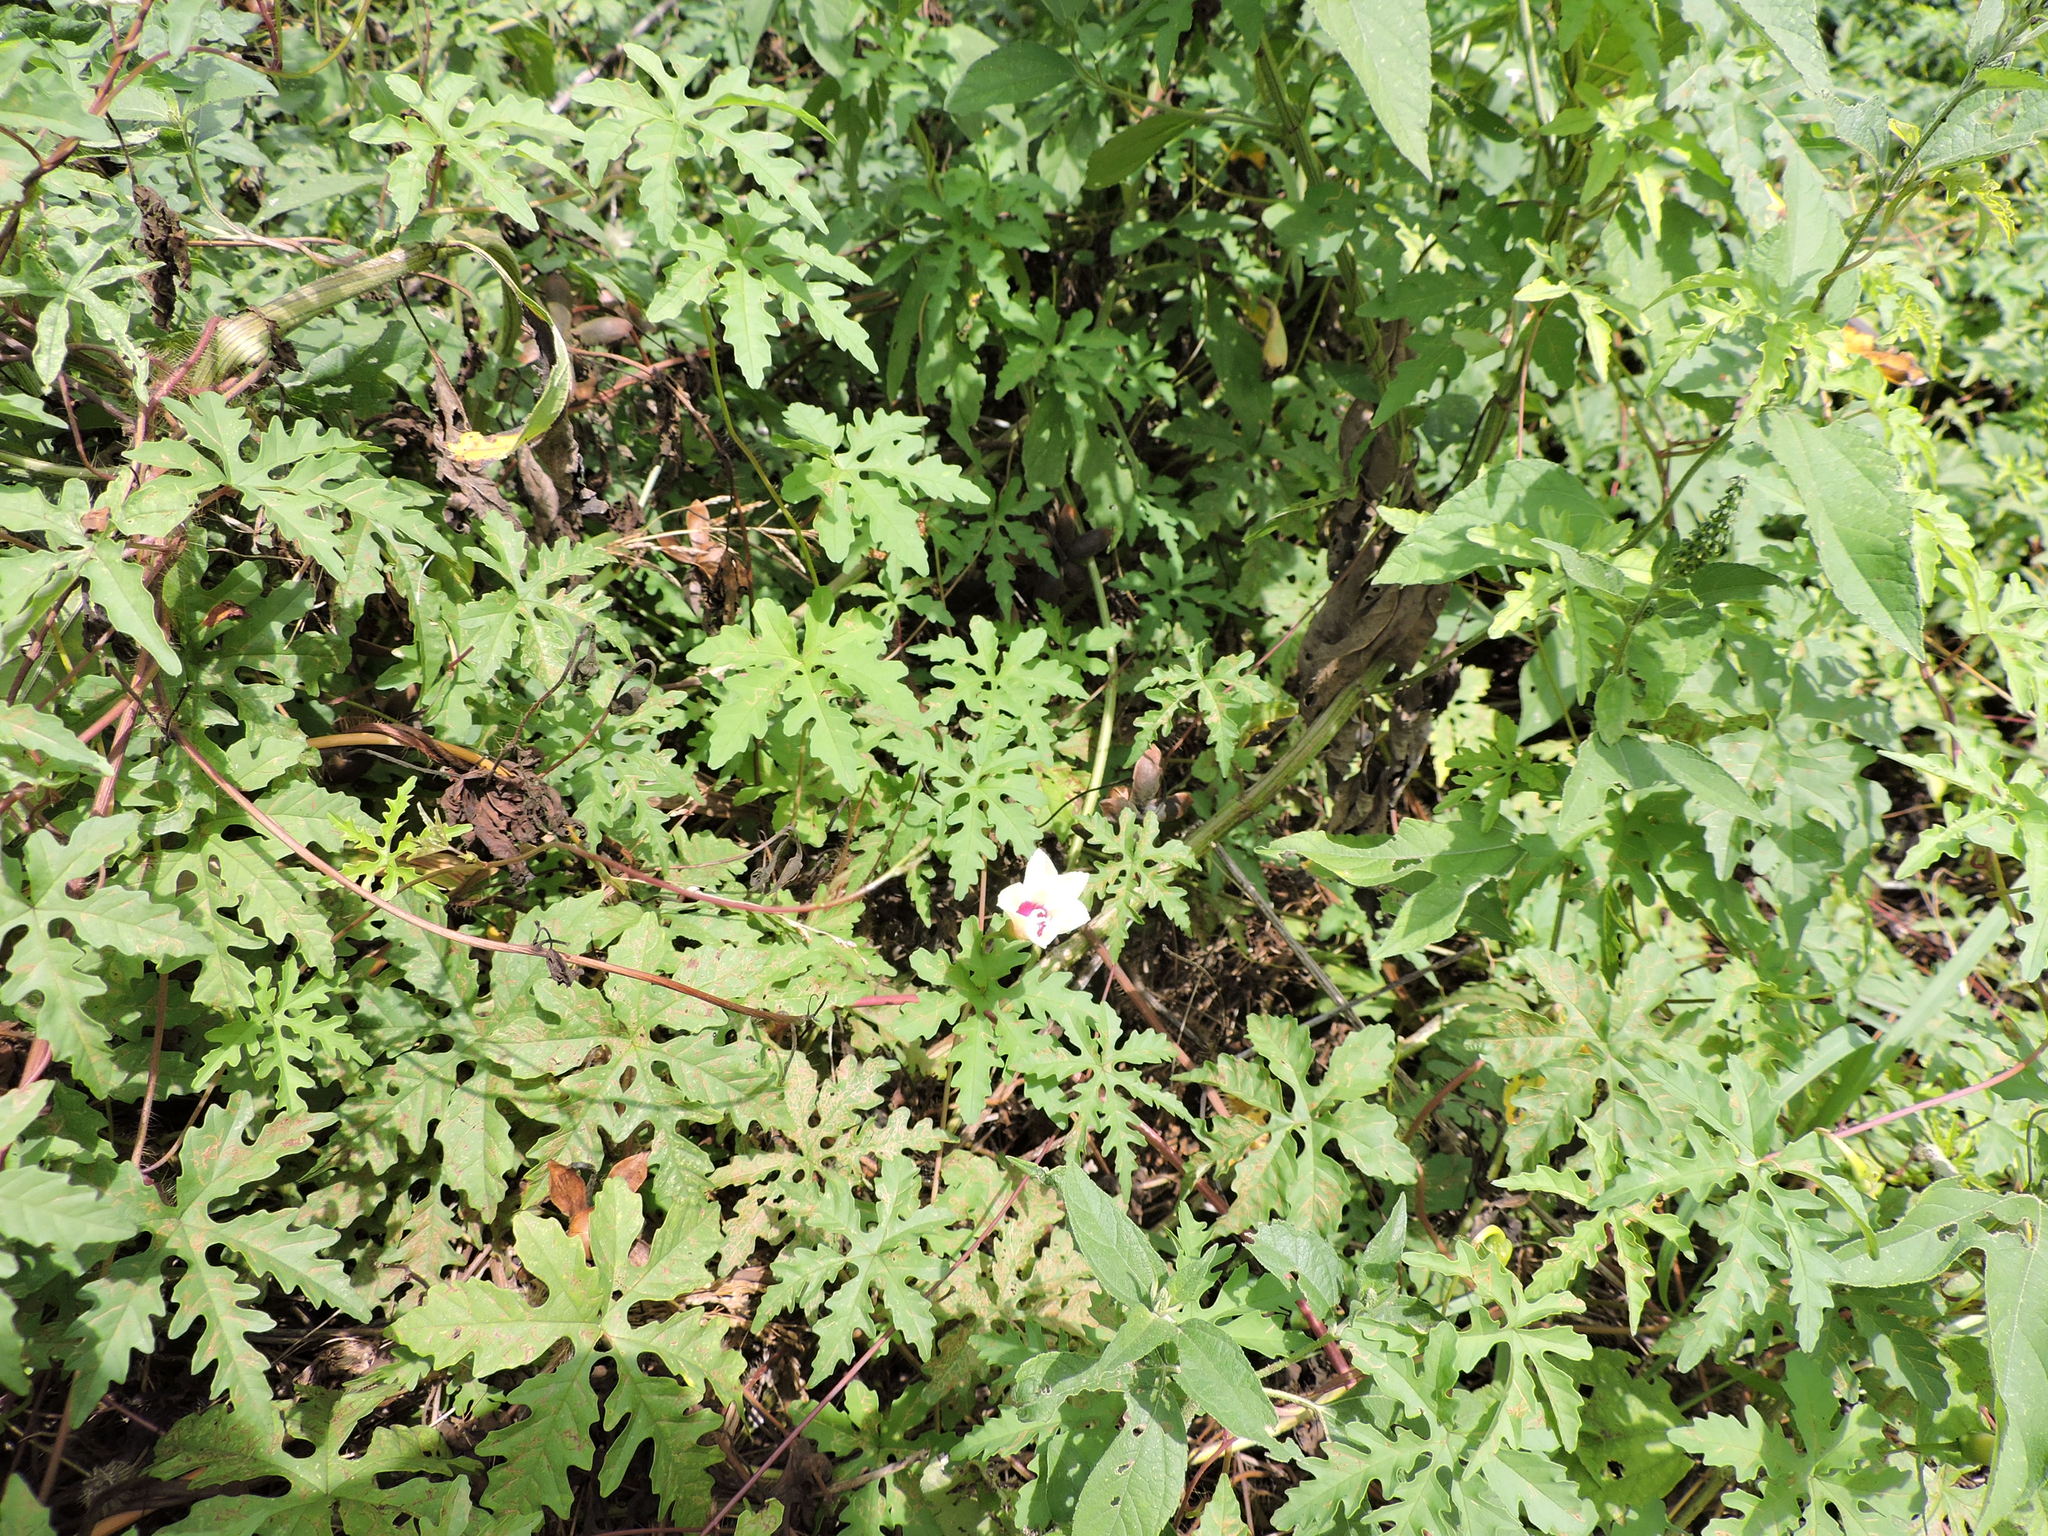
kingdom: Plantae
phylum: Tracheophyta
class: Magnoliopsida
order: Solanales
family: Convolvulaceae
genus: Distimake
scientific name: Distimake dissectus
